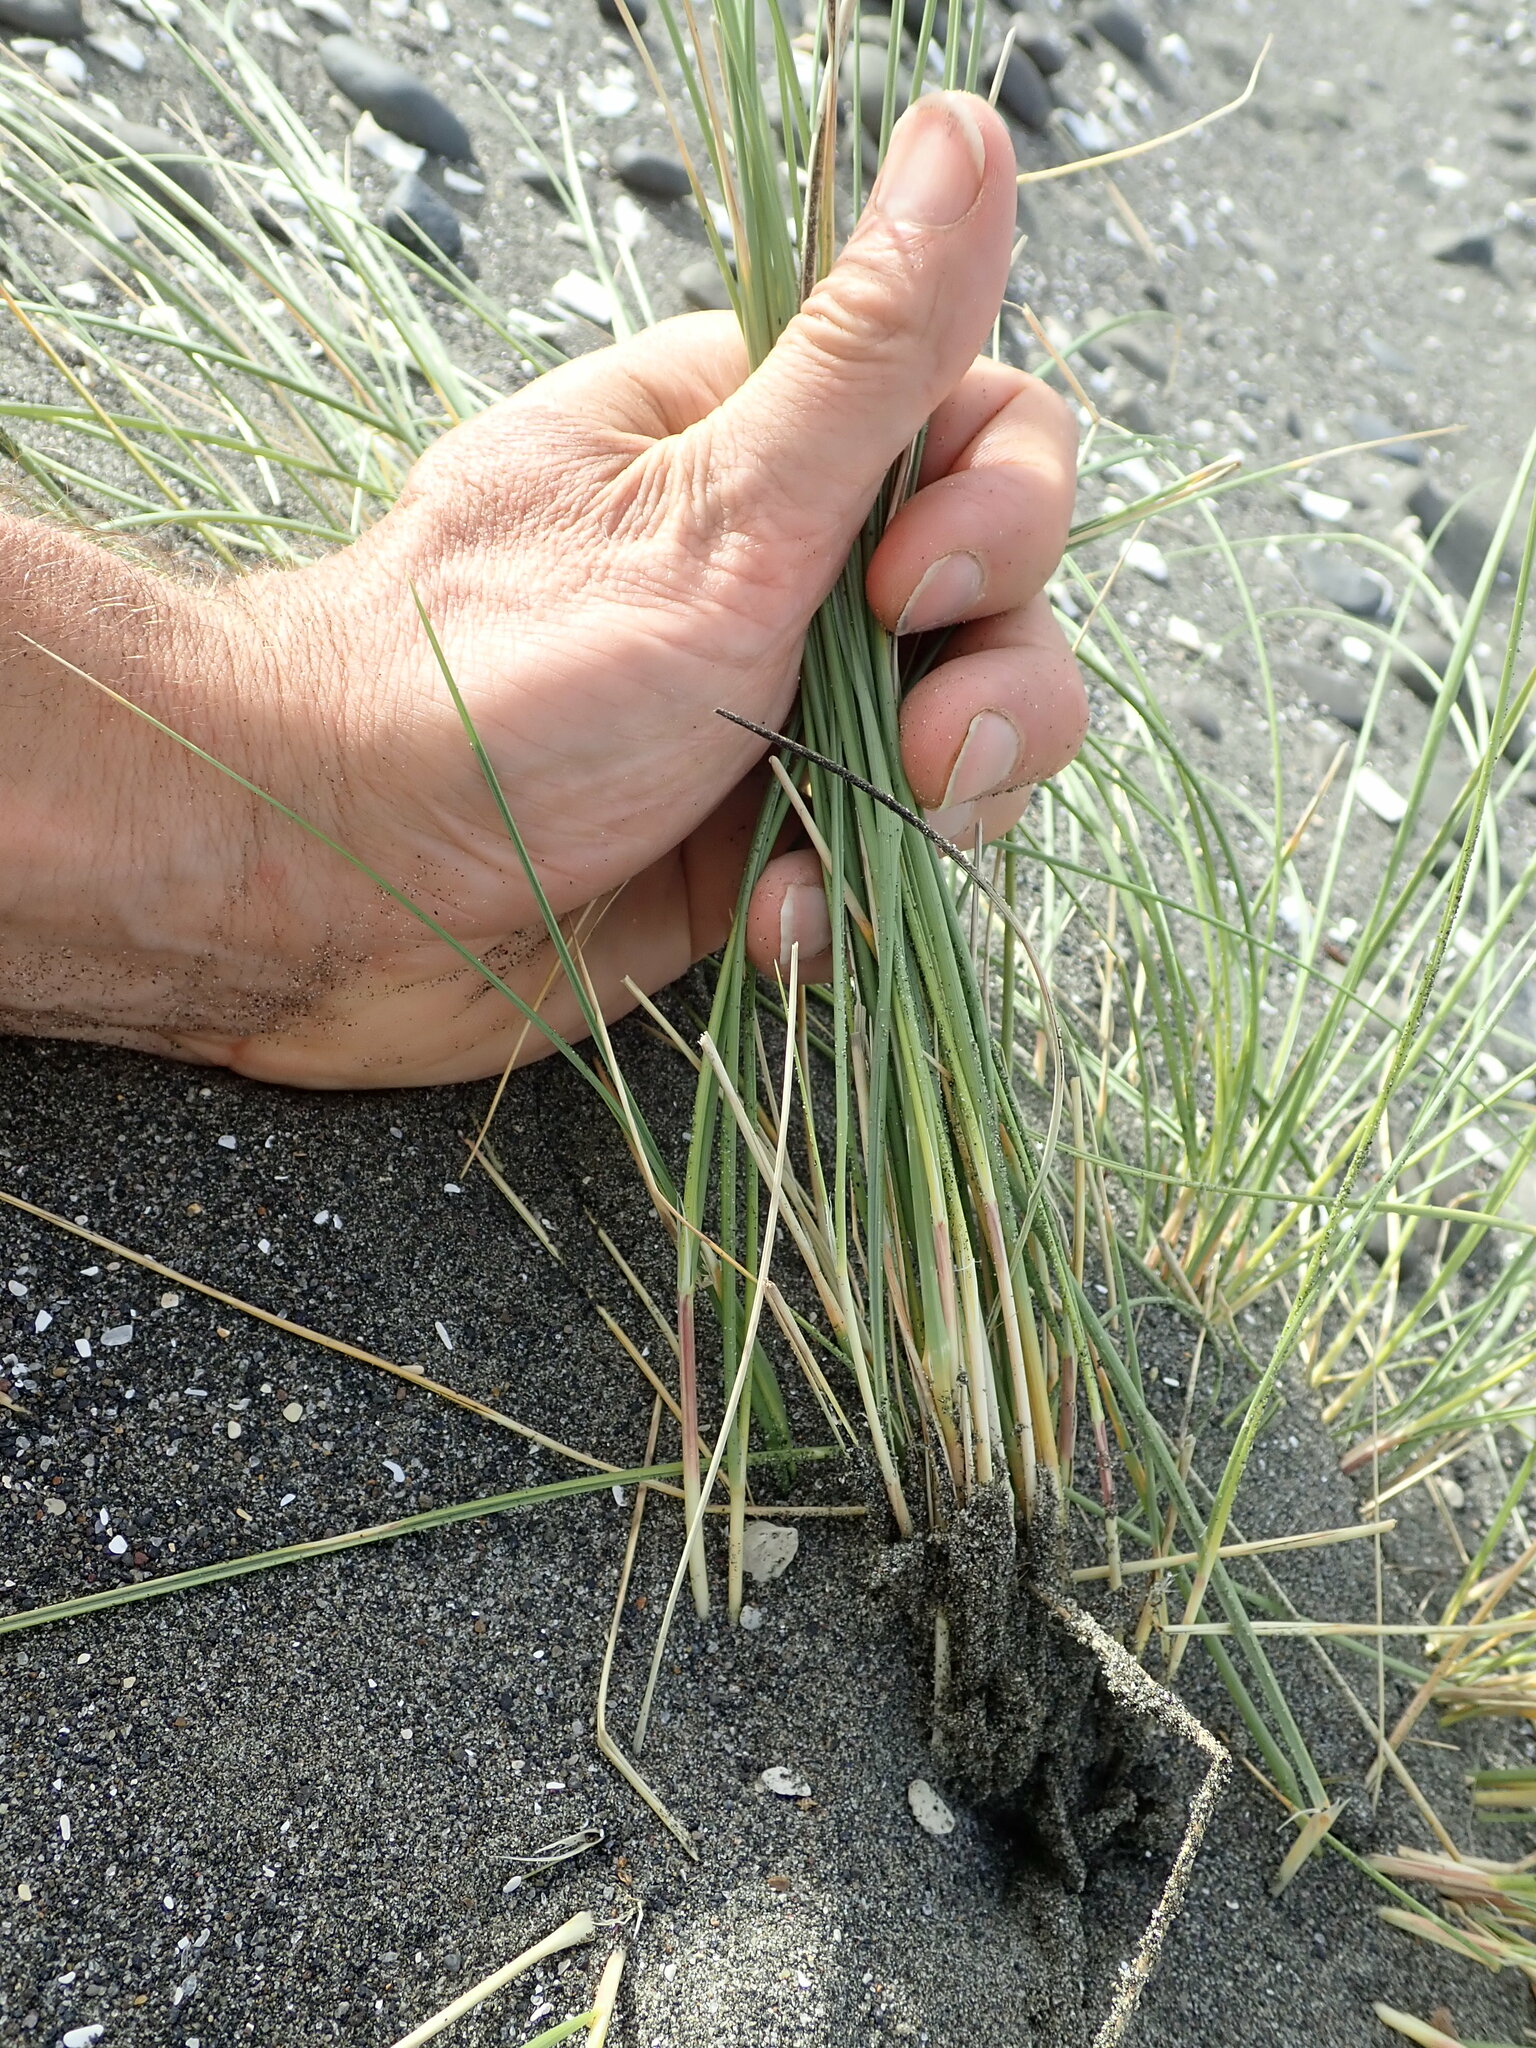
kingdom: Plantae
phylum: Tracheophyta
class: Liliopsida
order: Poales
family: Poaceae
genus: Calamagrostis
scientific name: Calamagrostis arenaria
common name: European beachgrass
